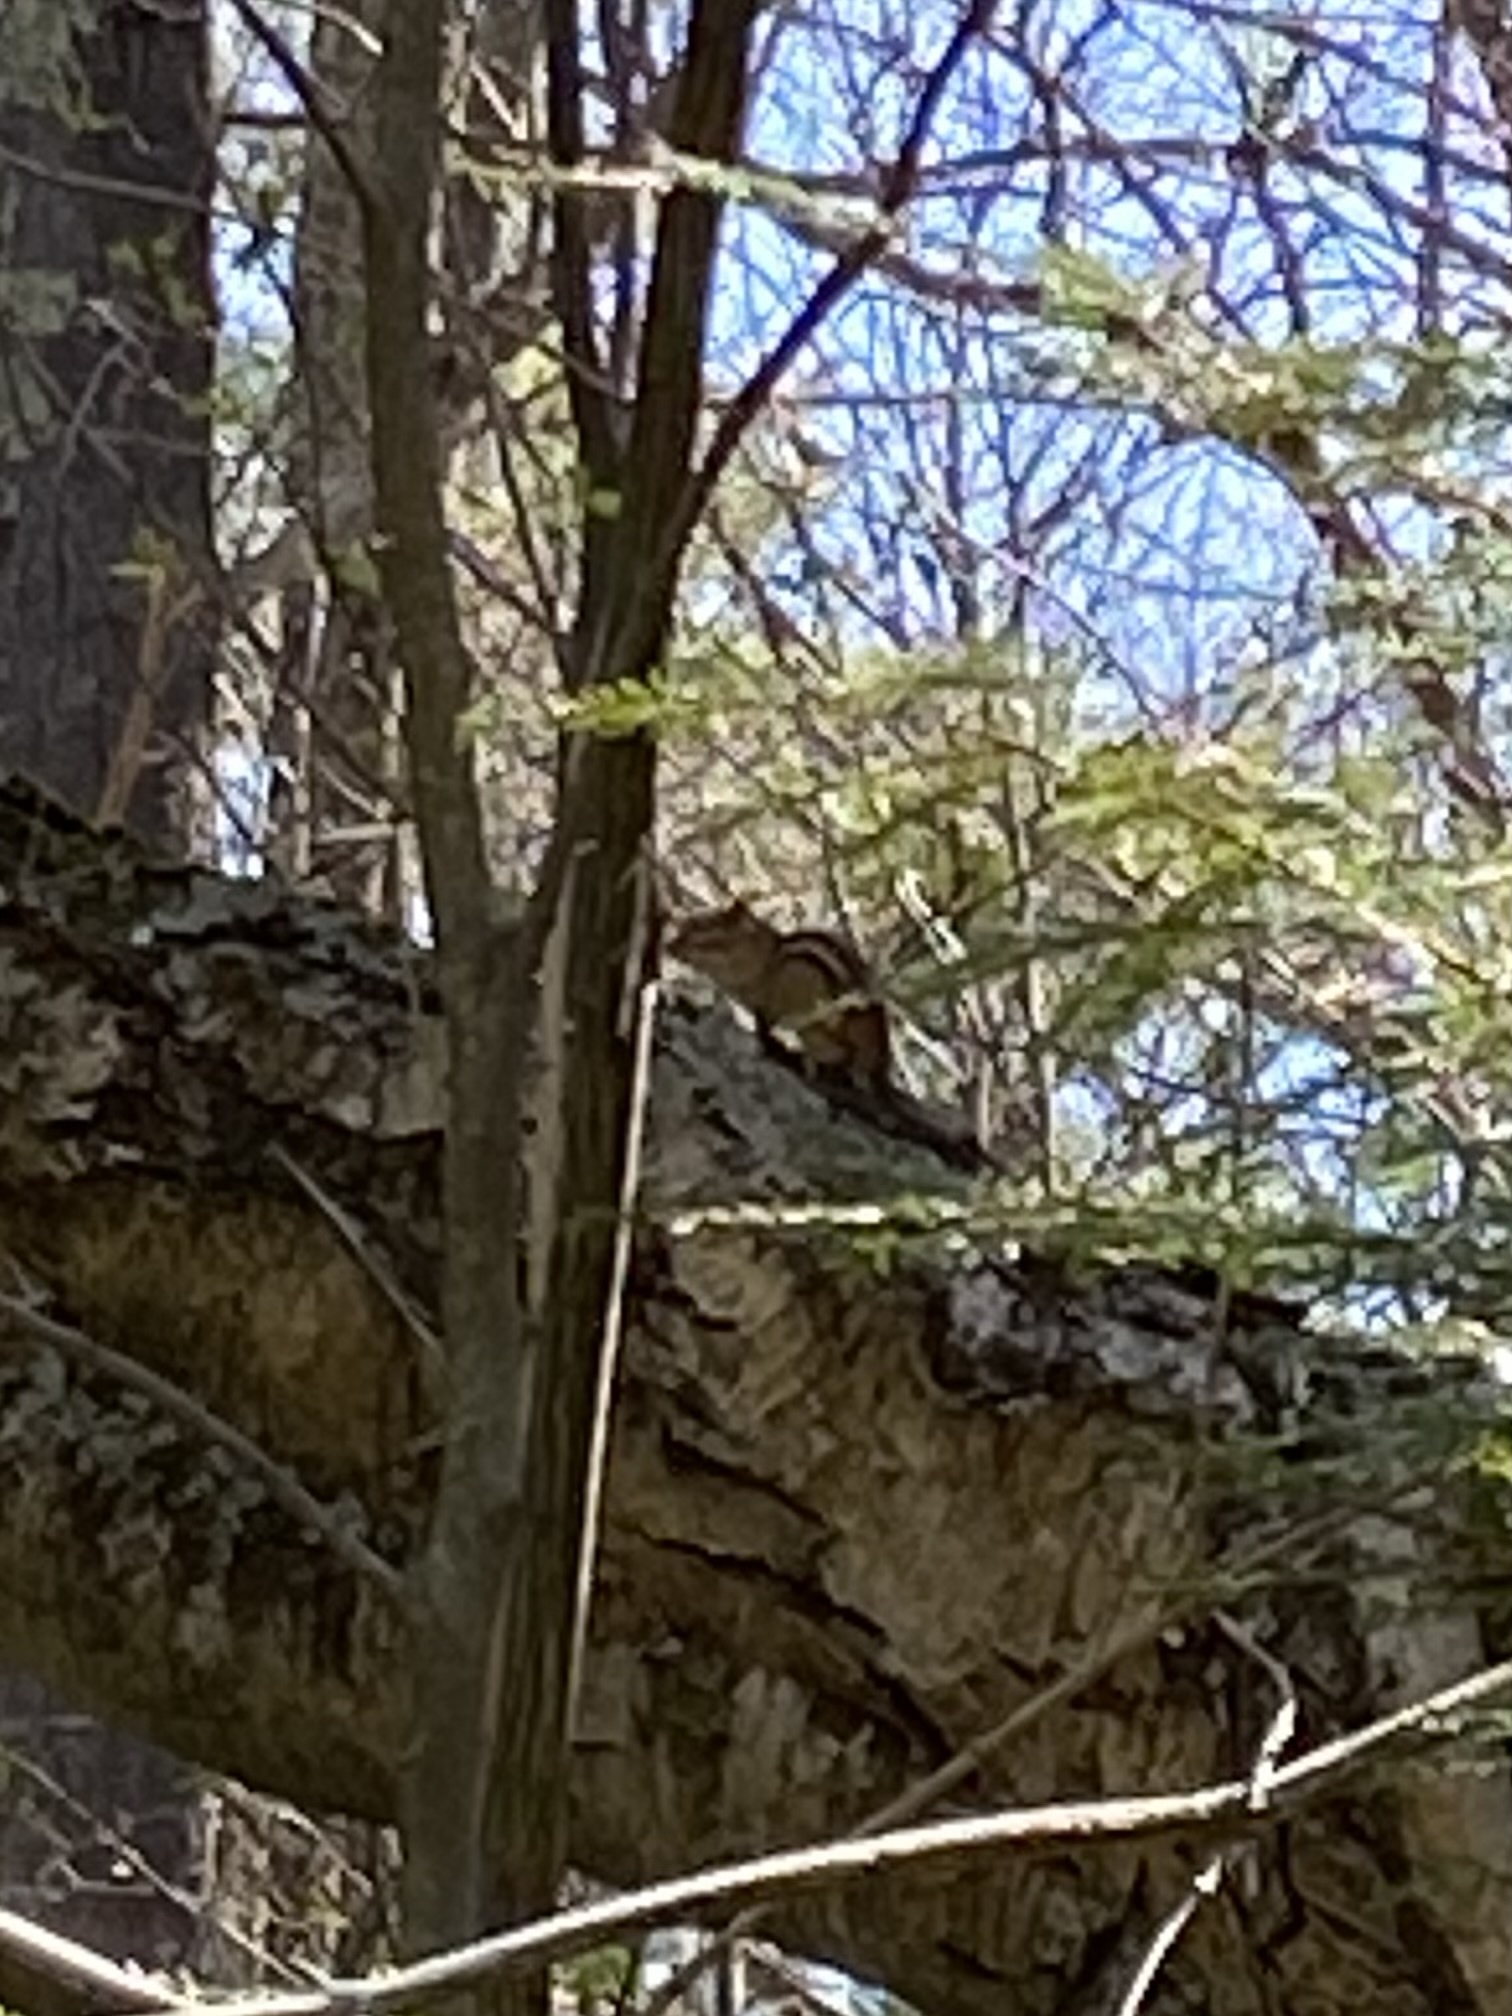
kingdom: Animalia
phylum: Chordata
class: Mammalia
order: Rodentia
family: Sciuridae
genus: Tamias
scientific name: Tamias striatus
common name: Eastern chipmunk
